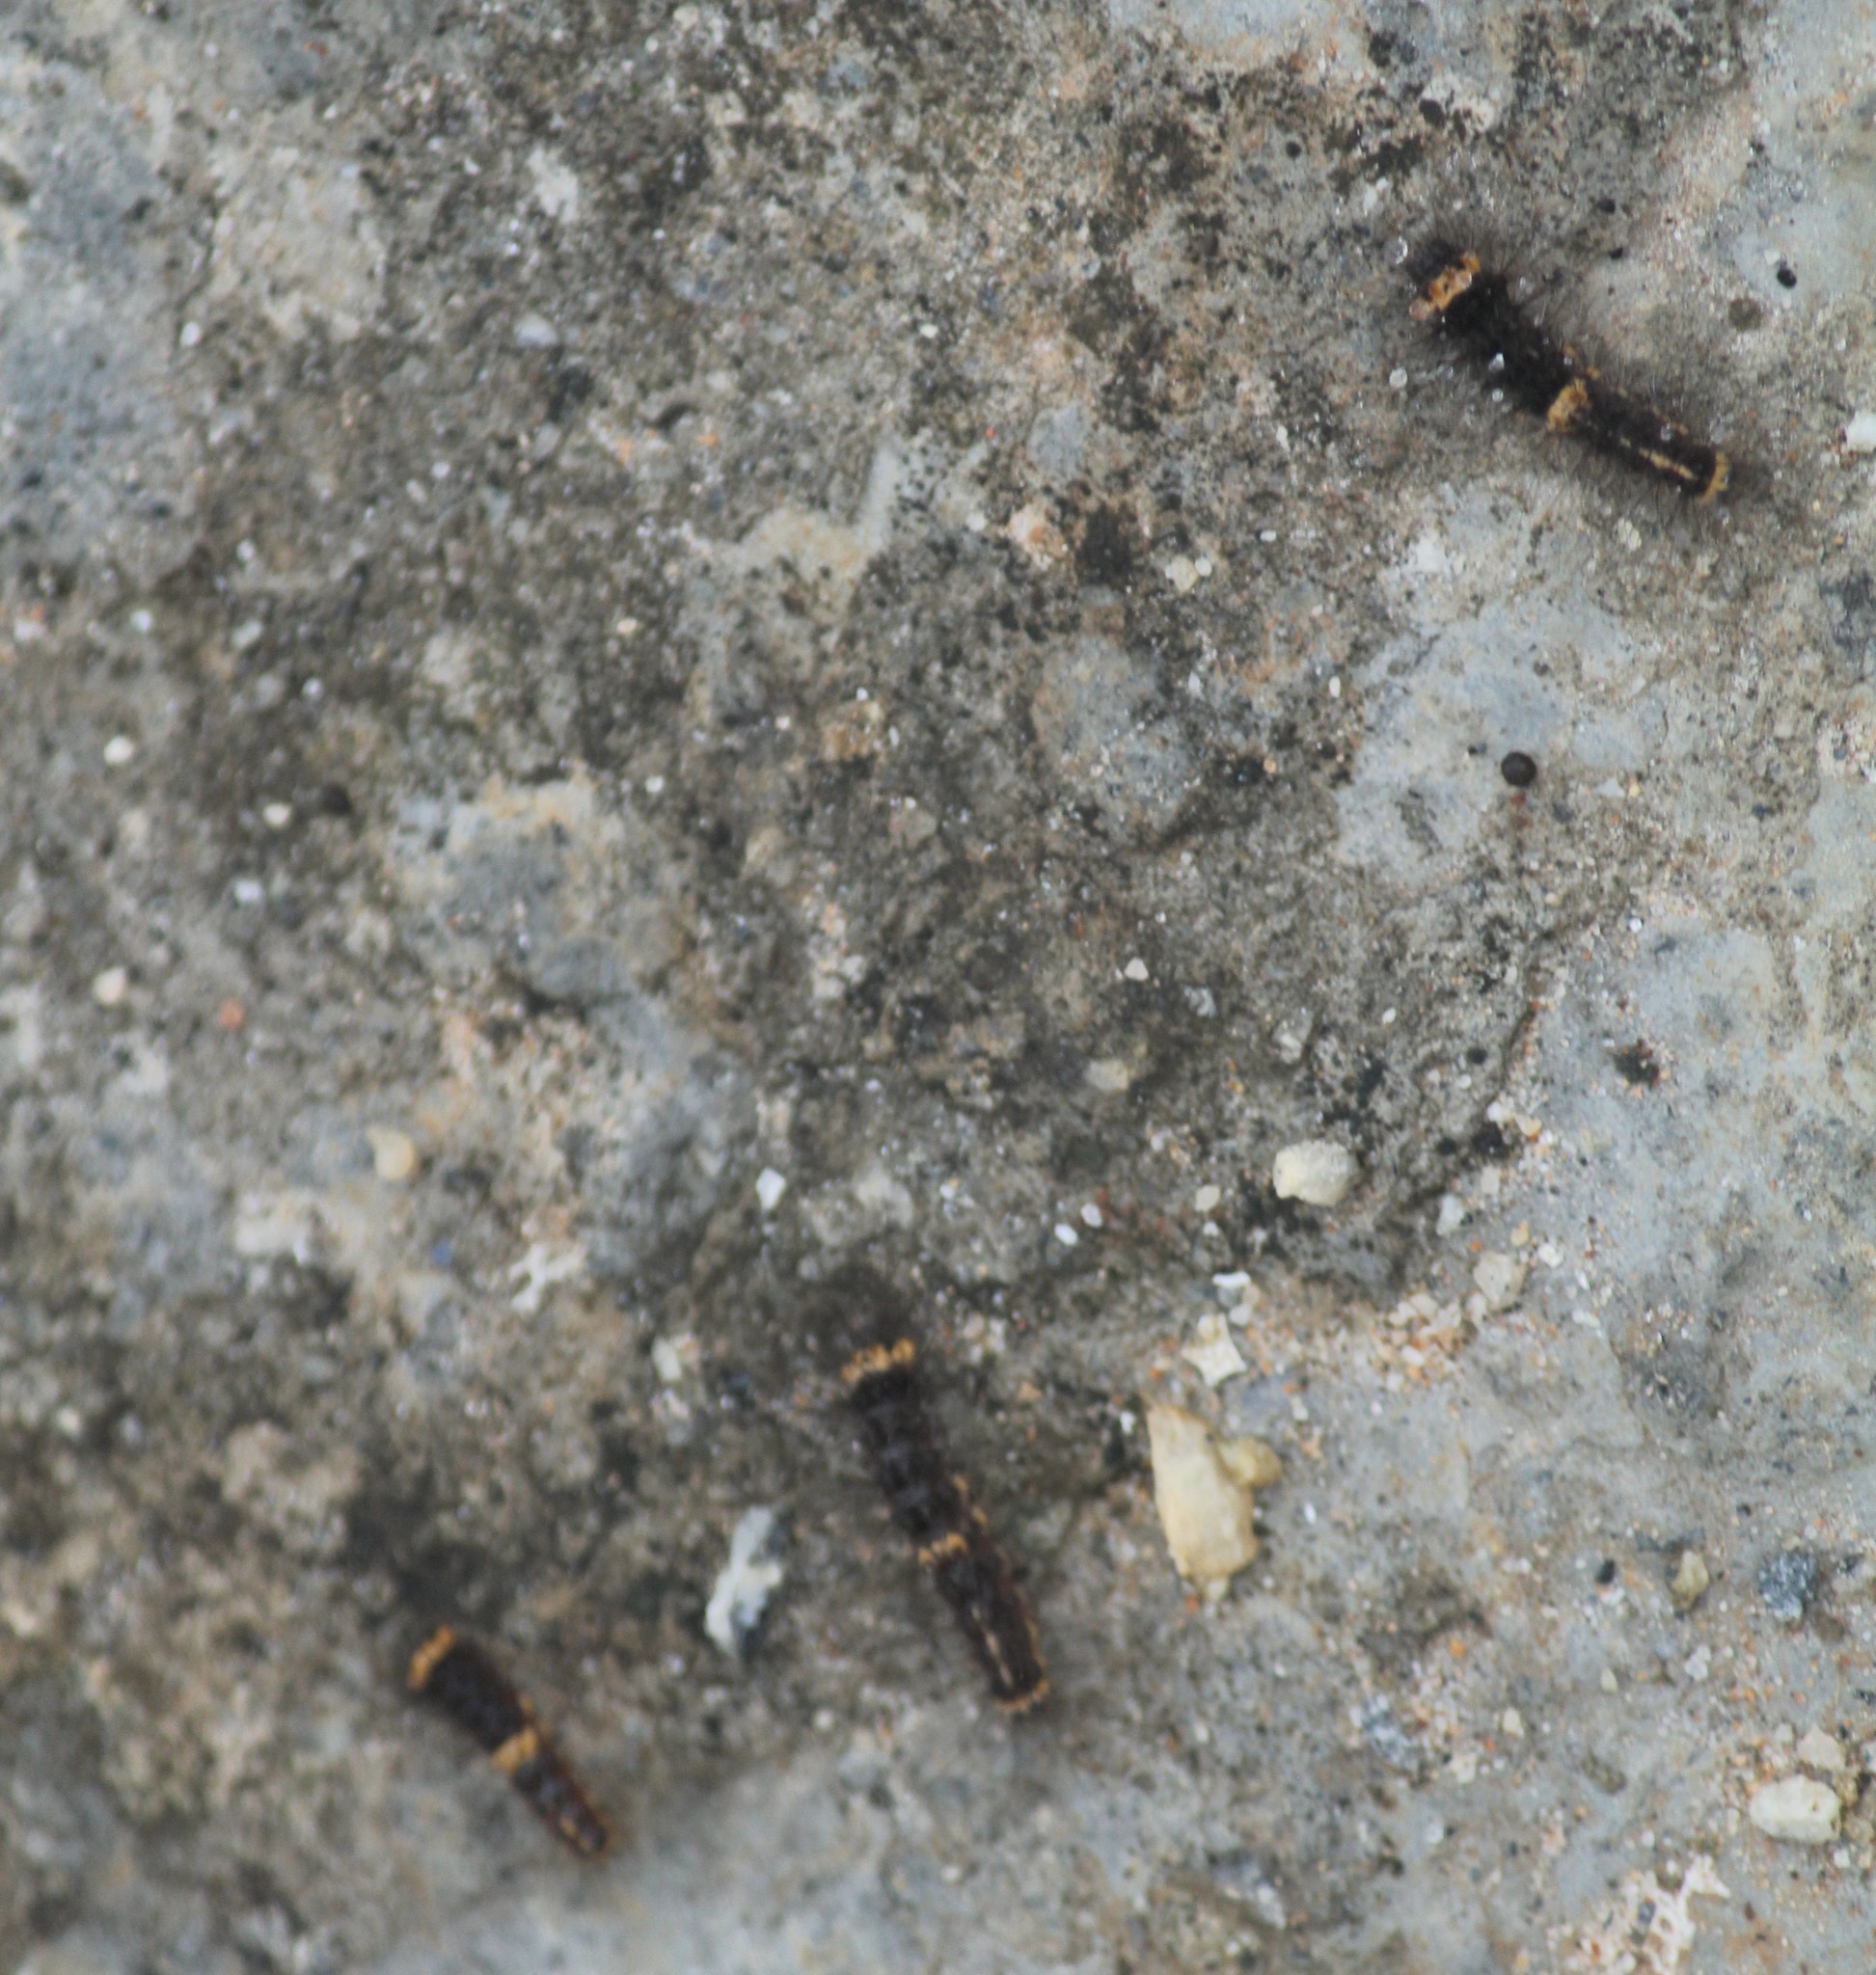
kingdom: Animalia
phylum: Arthropoda
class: Insecta
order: Lepidoptera
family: Erebidae
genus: Nepita
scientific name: Nepita conferta
